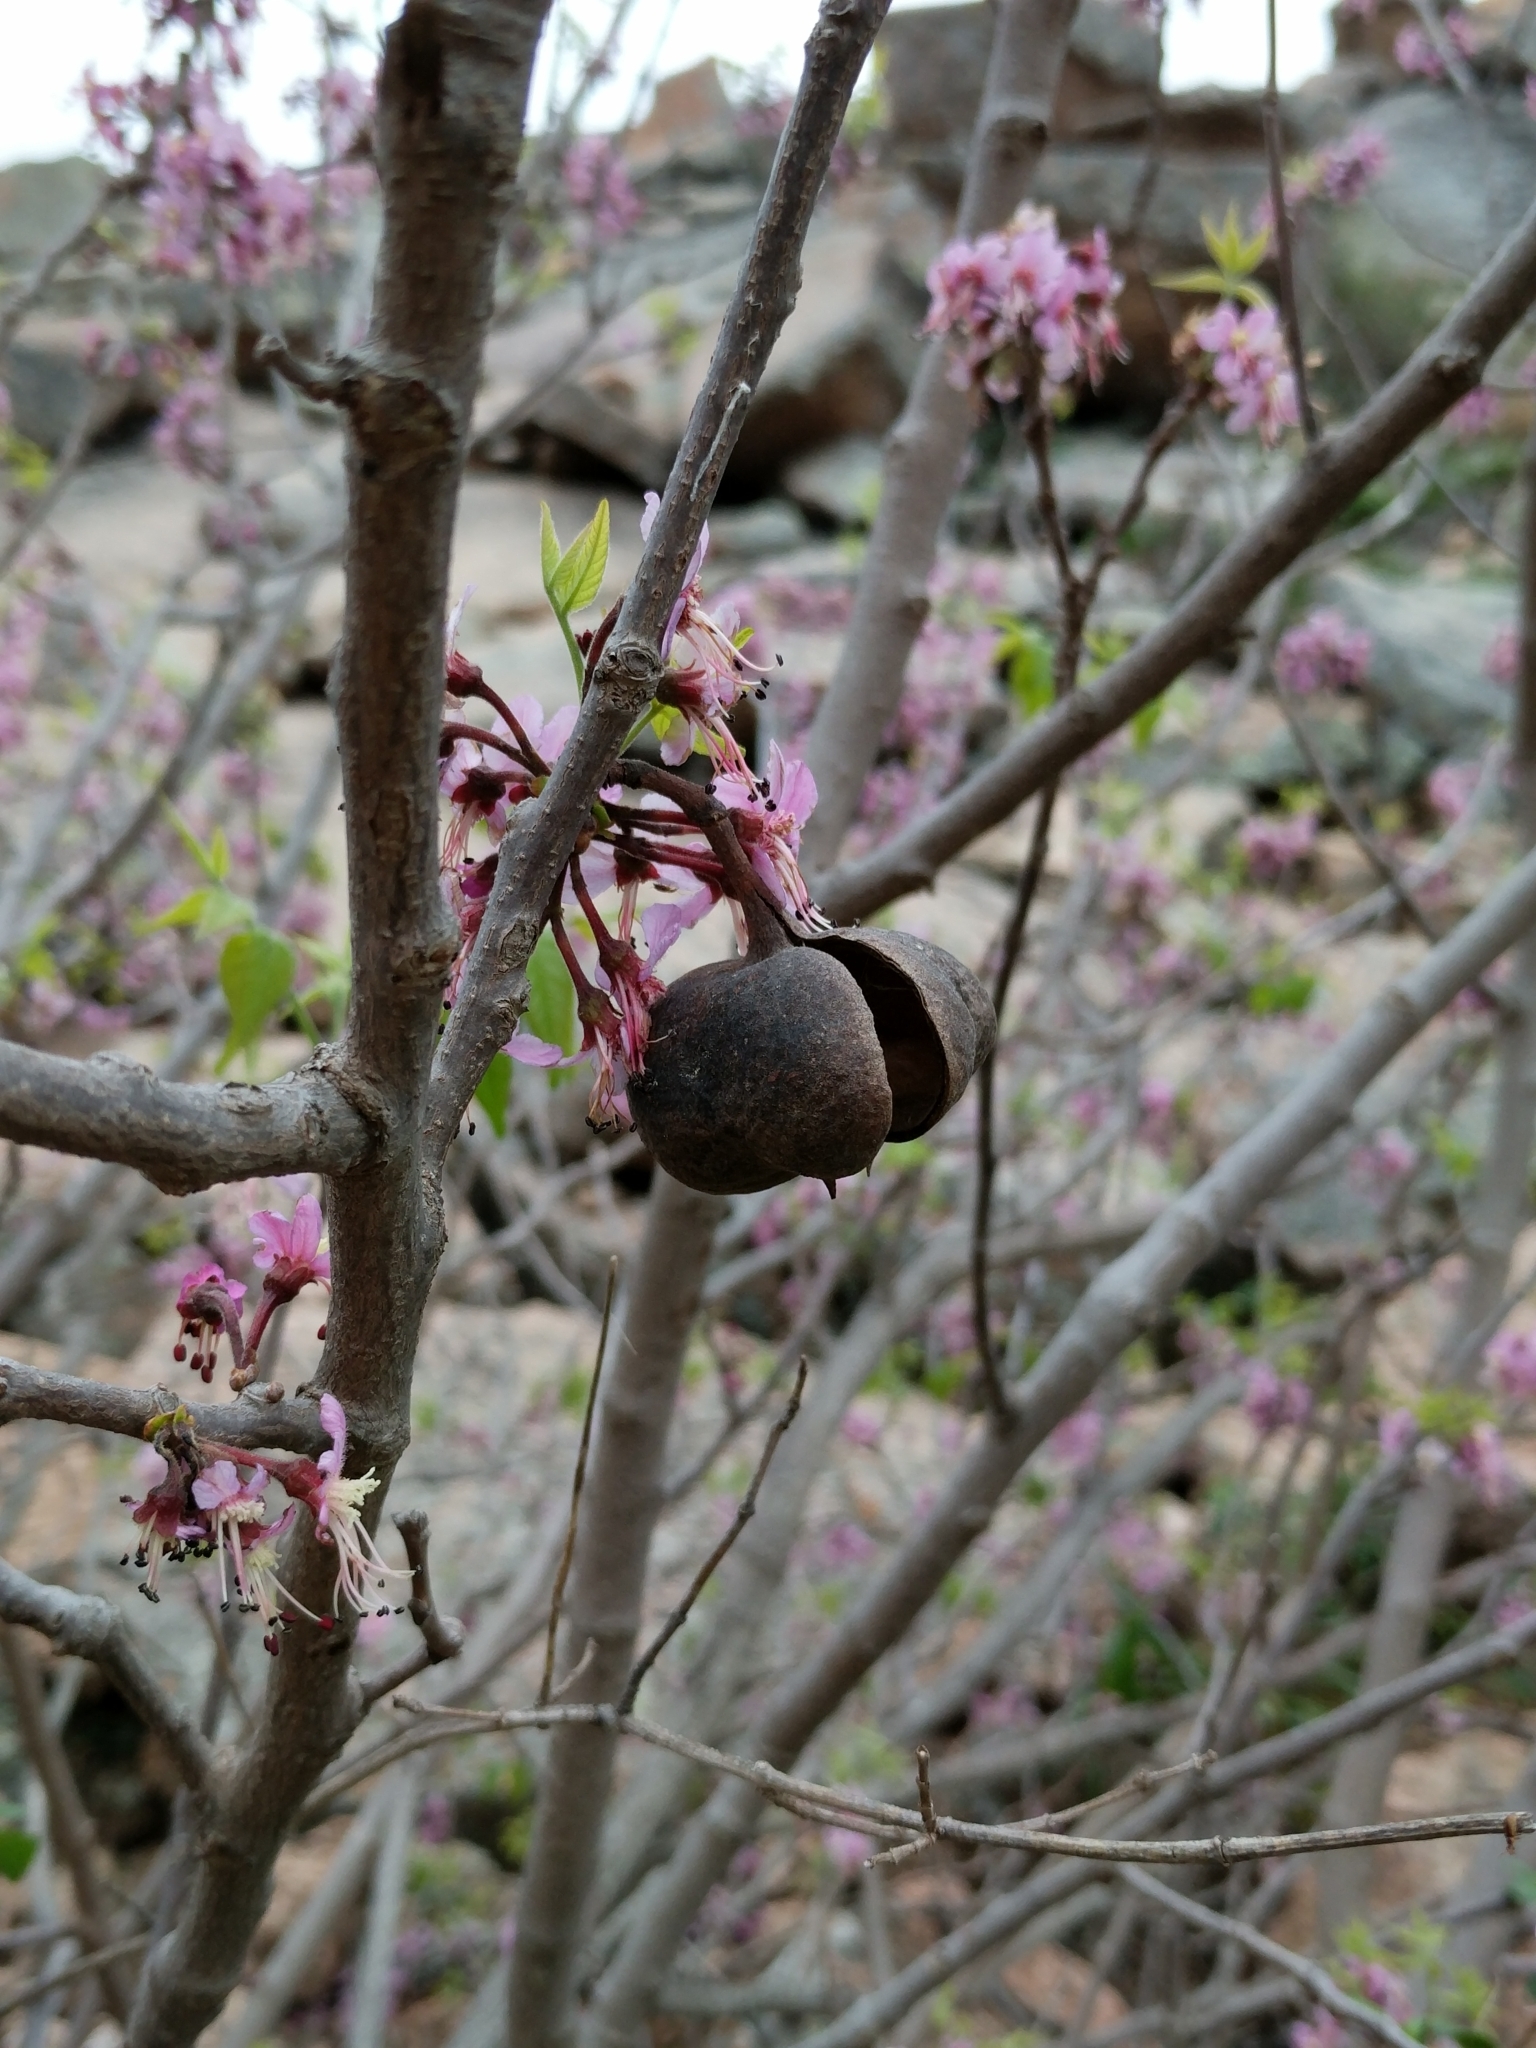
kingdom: Plantae
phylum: Tracheophyta
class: Magnoliopsida
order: Sapindales
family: Sapindaceae
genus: Ungnadia
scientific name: Ungnadia speciosa
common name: Texas-buckeye
